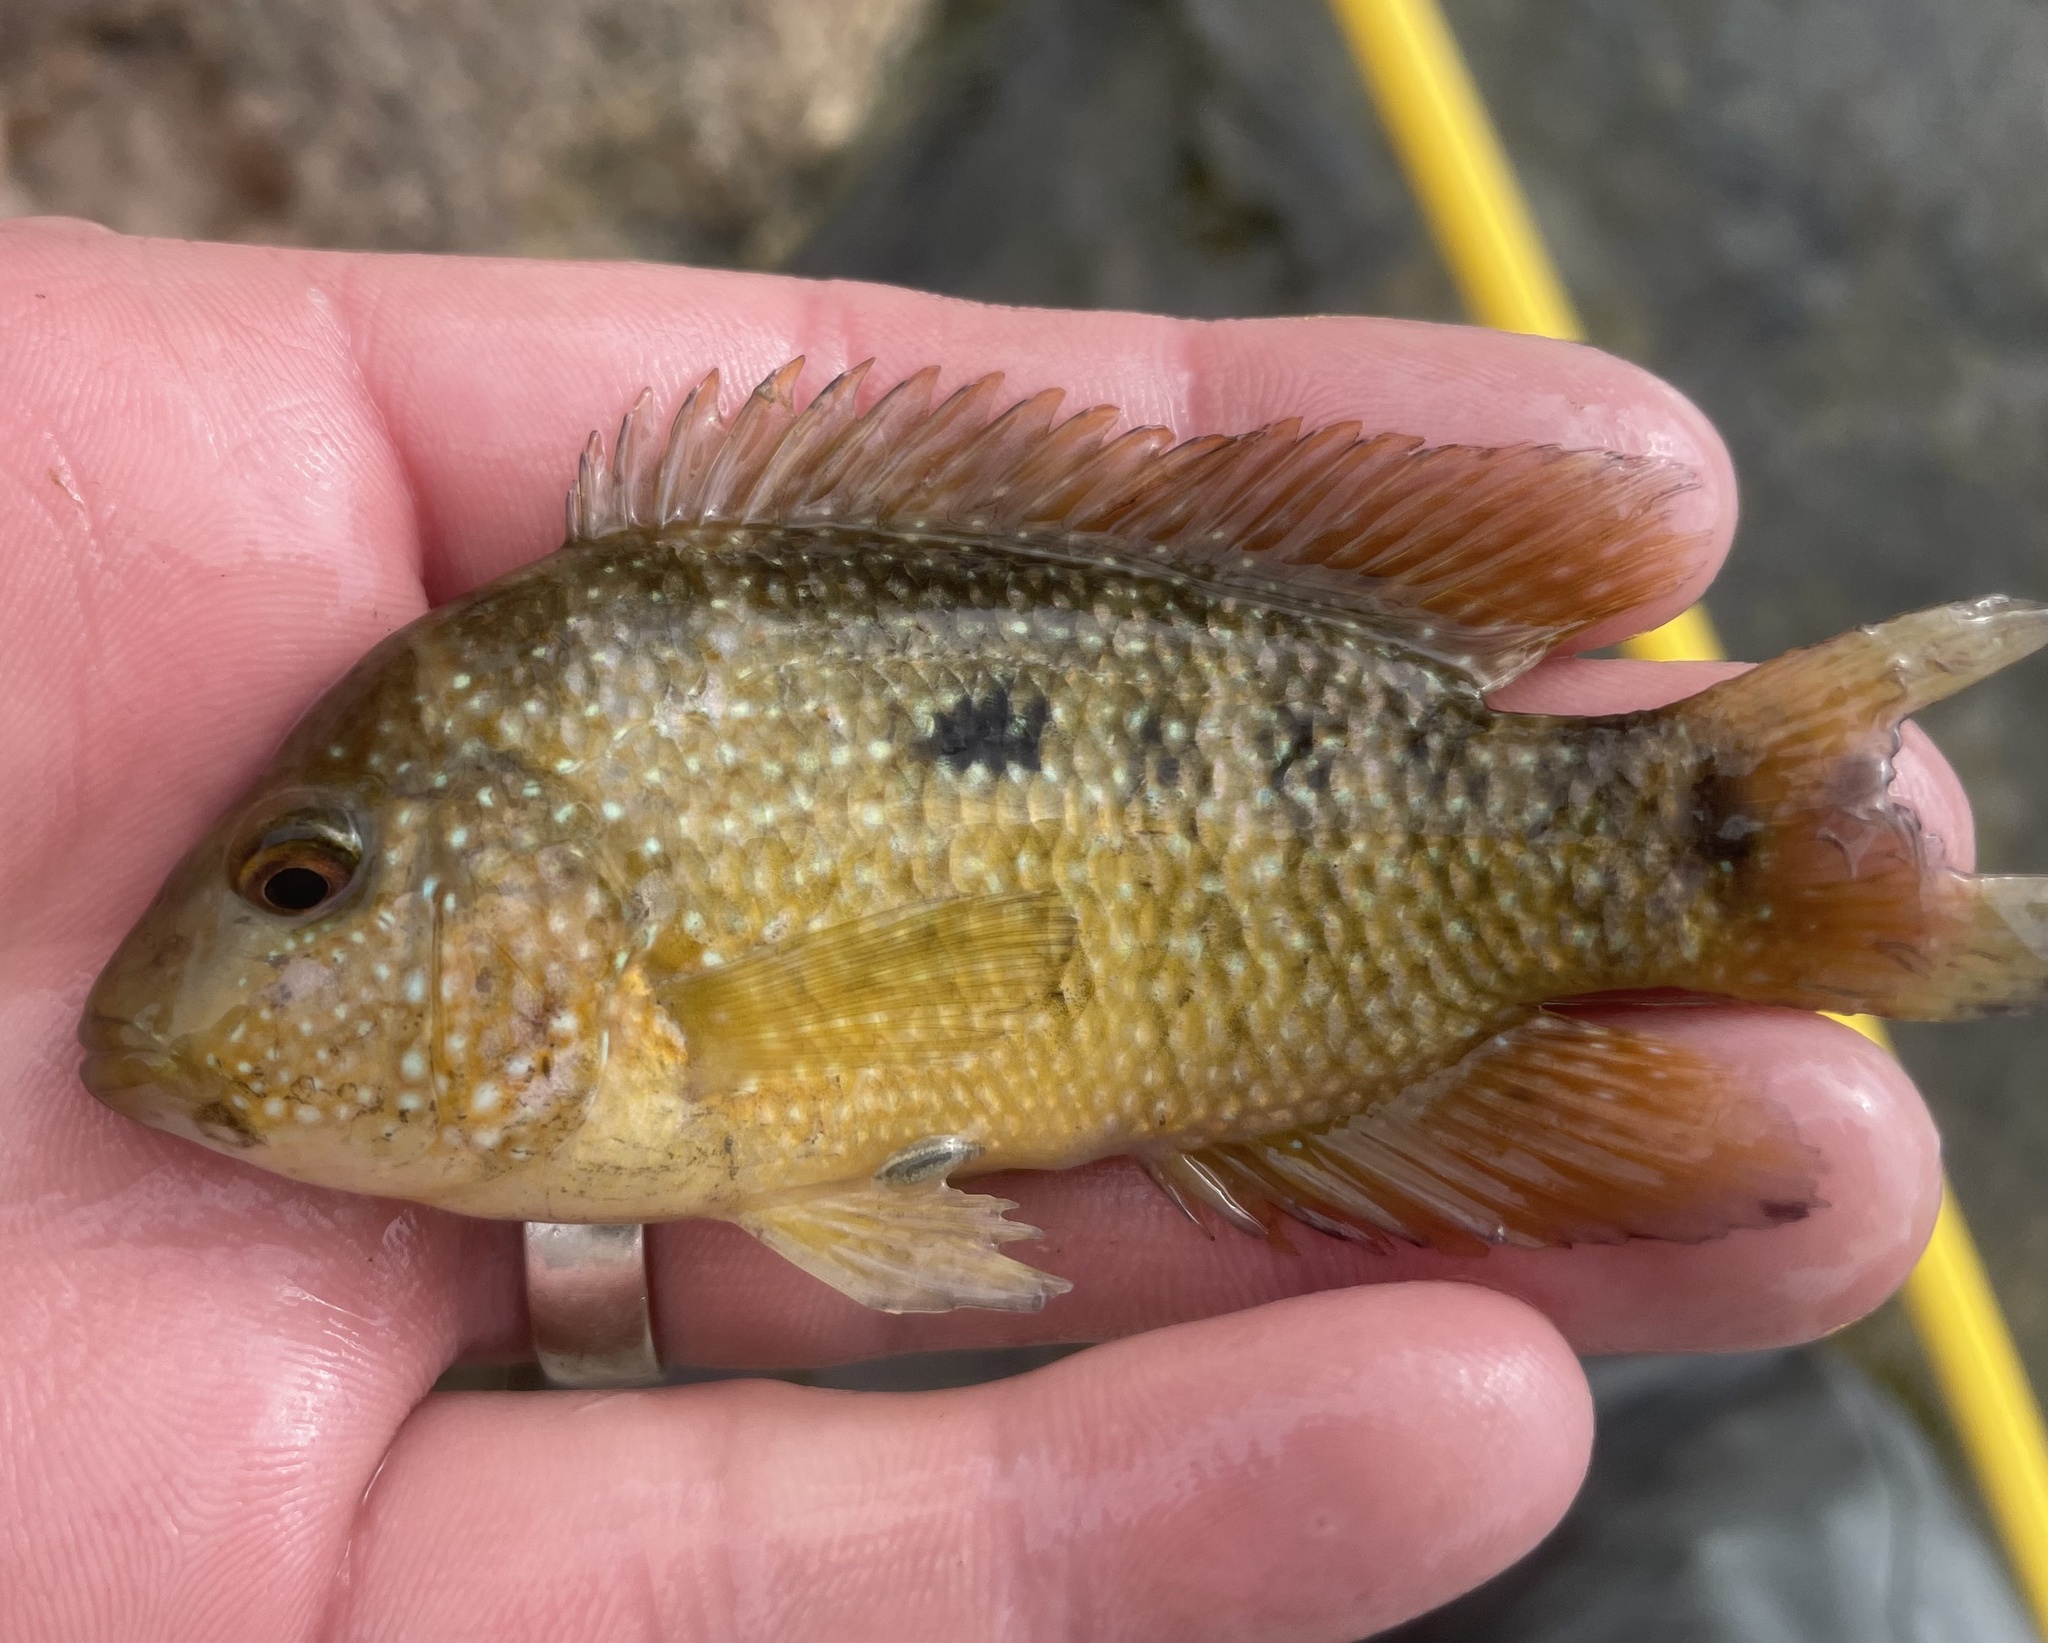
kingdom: Animalia
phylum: Chordata
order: Perciformes
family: Cichlidae
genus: Herichthys
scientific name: Herichthys cyanoguttatus
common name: Rio grande cichlid
